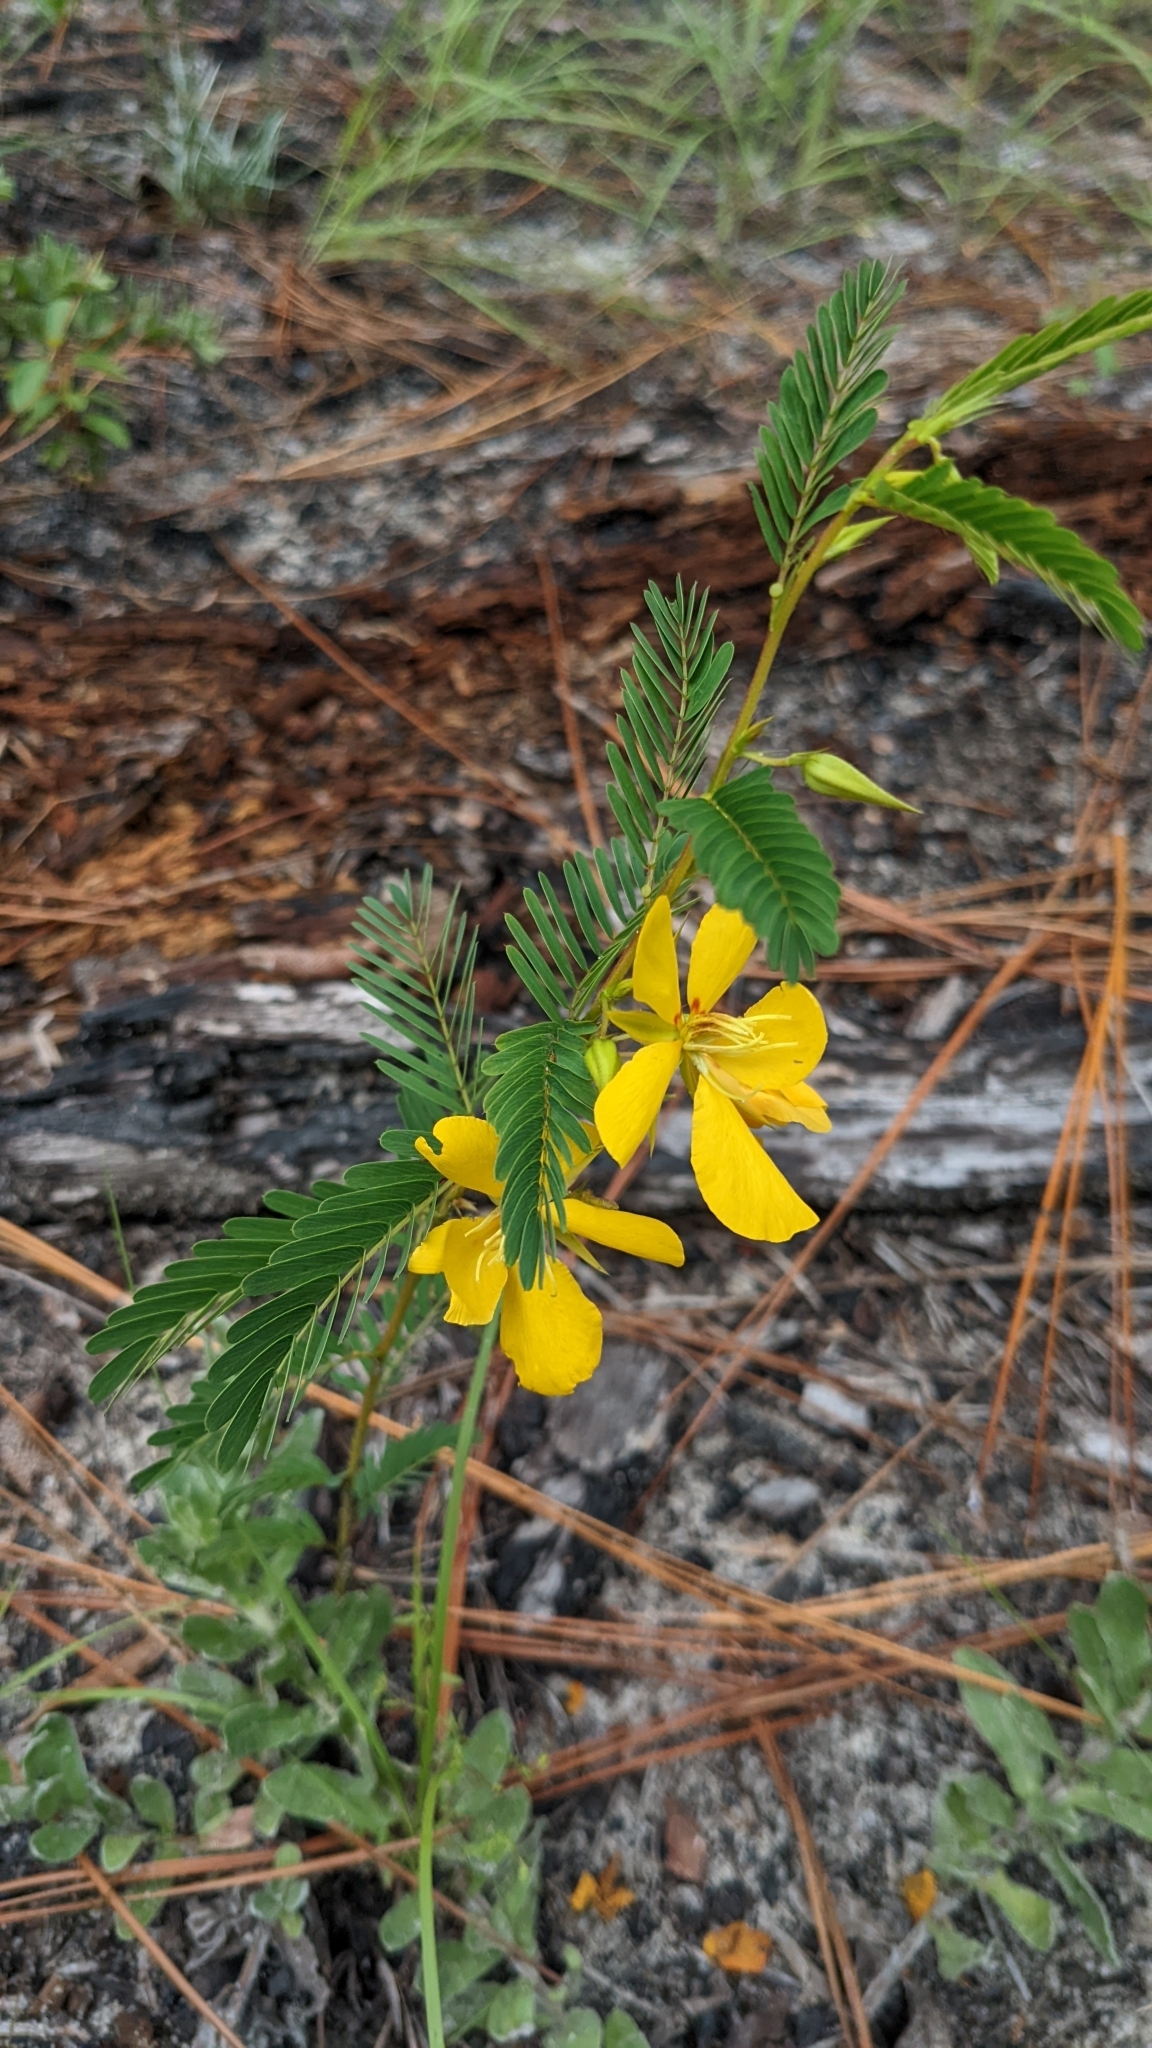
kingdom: Plantae
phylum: Tracheophyta
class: Magnoliopsida
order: Fabales
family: Fabaceae
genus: Chamaecrista
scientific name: Chamaecrista fasciculata
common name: Golden cassia
